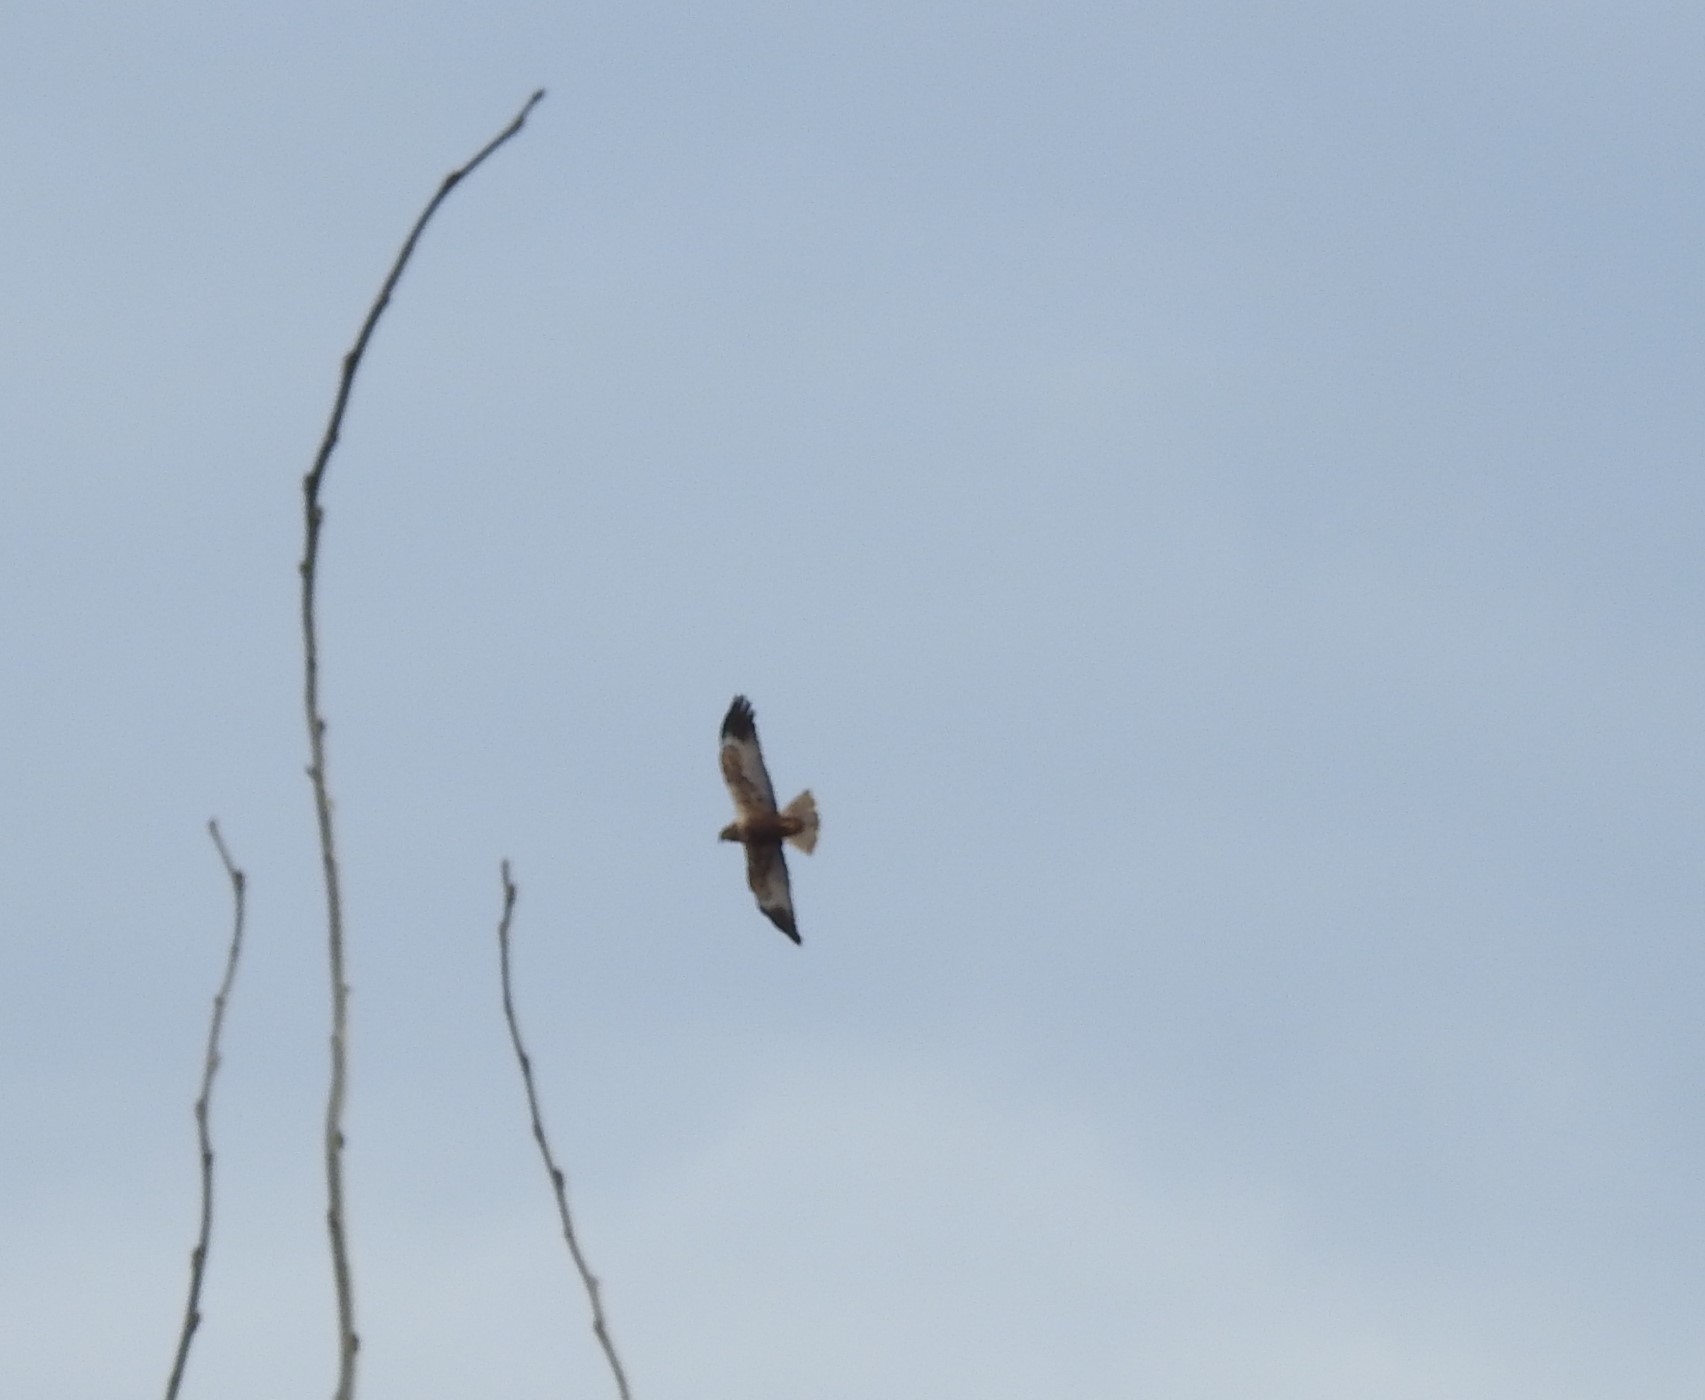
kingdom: Animalia
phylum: Chordata
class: Aves
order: Accipitriformes
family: Accipitridae
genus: Circus
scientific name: Circus aeruginosus
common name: Western marsh harrier
